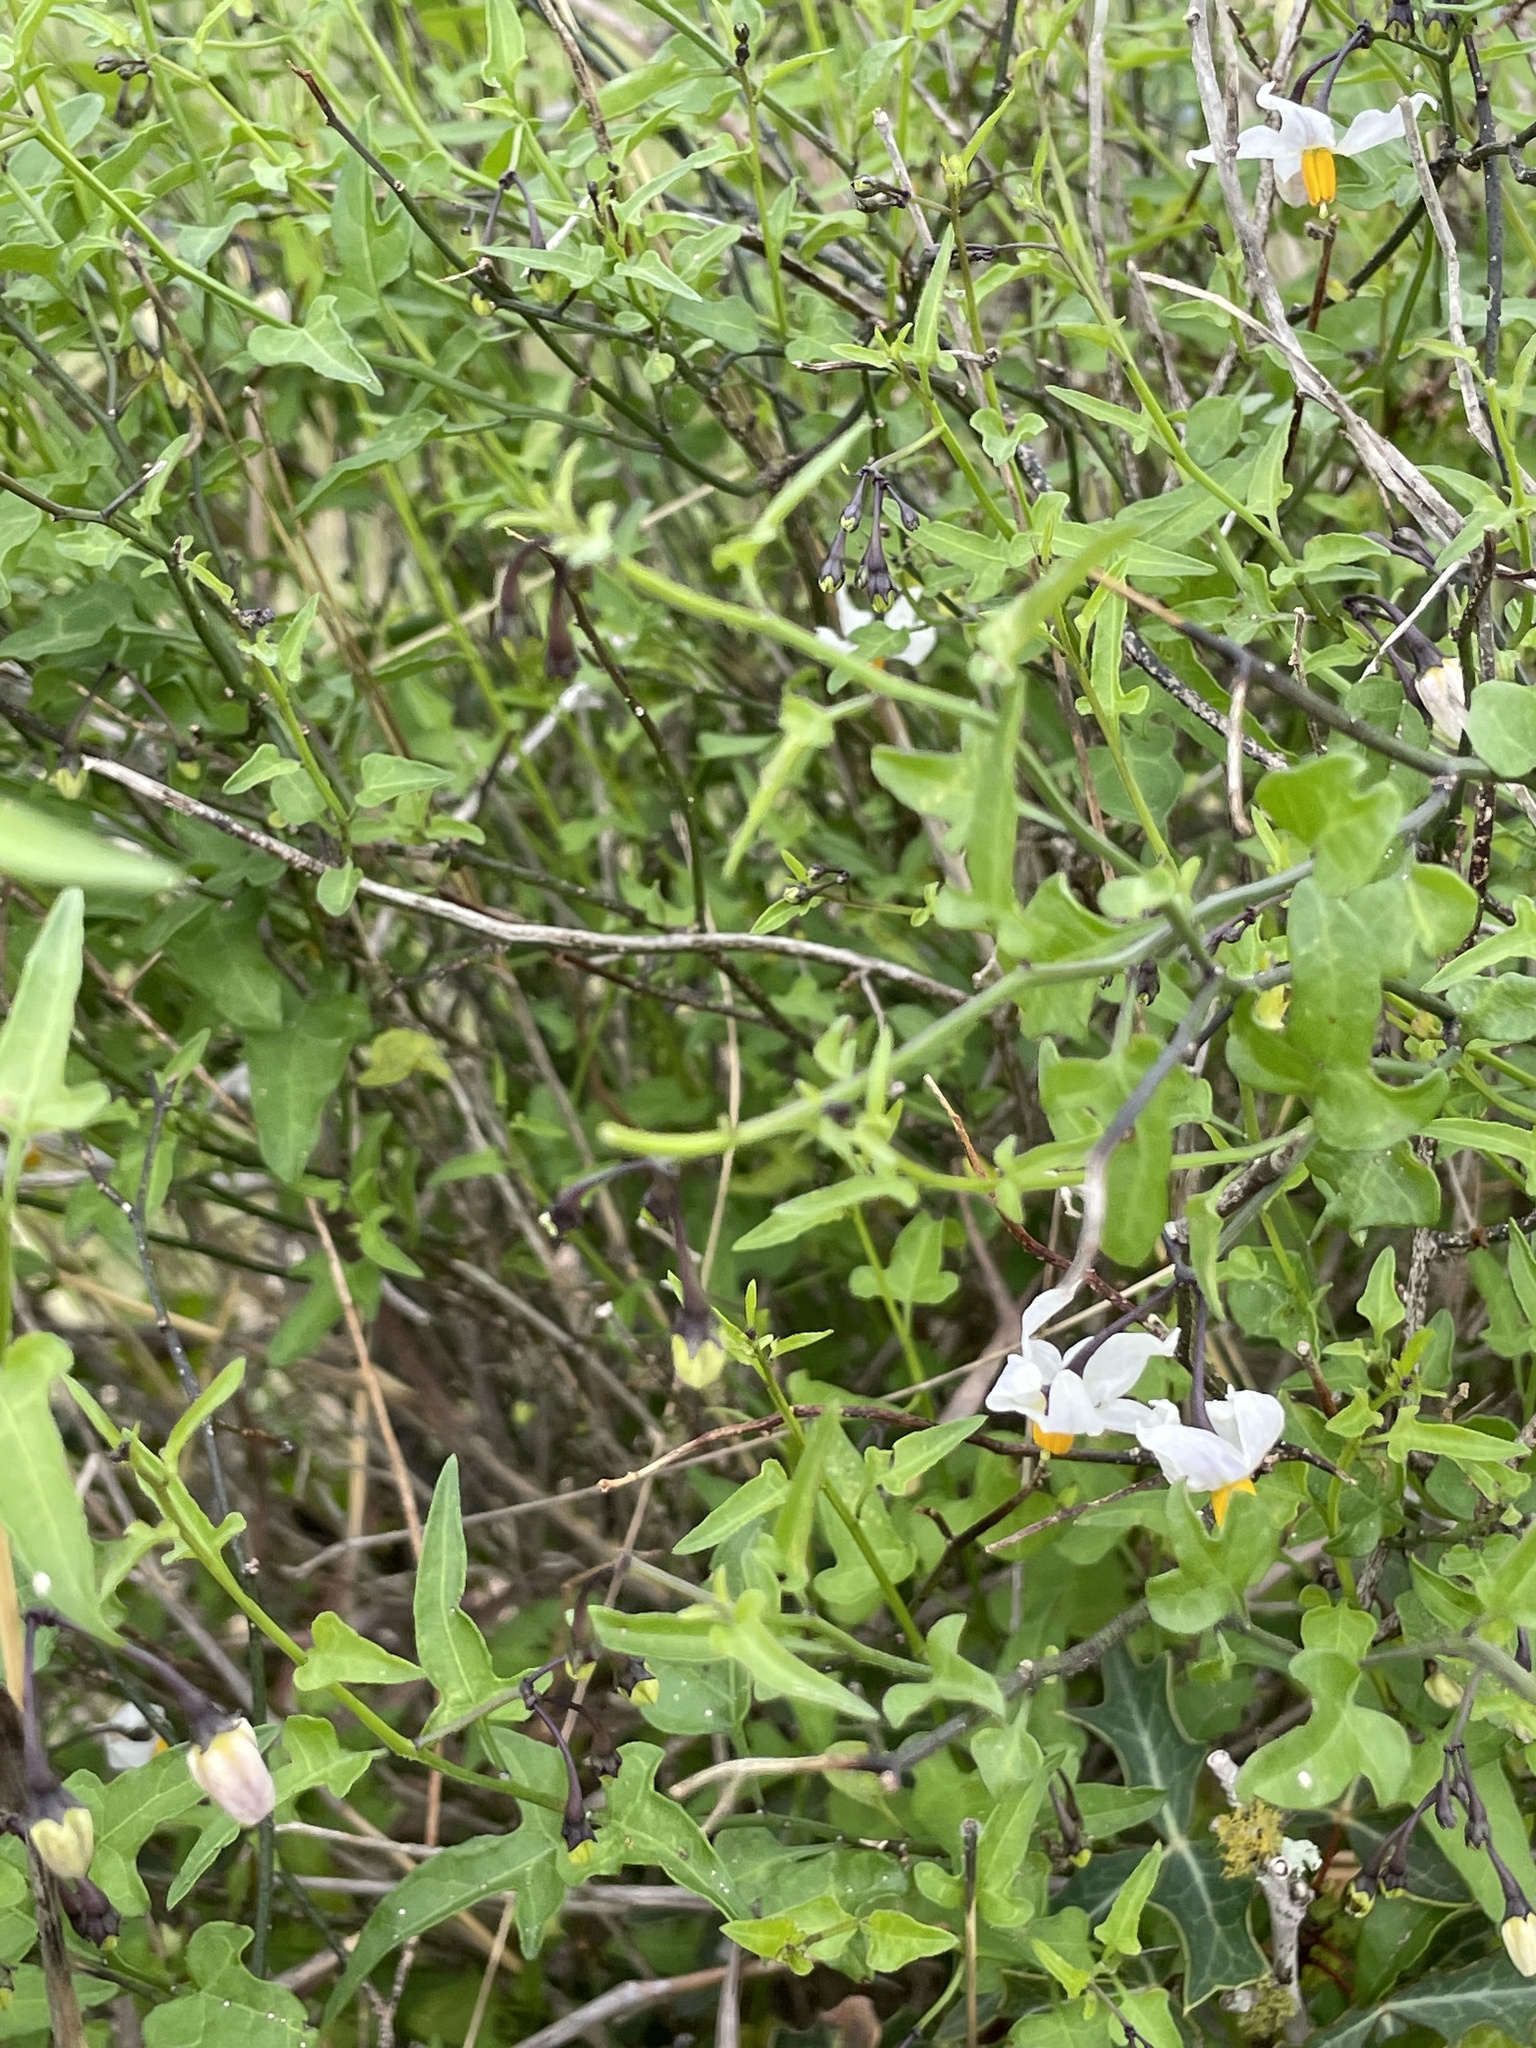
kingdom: Plantae
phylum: Tracheophyta
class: Magnoliopsida
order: Solanales
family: Solanaceae
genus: Solanum
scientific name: Solanum triquetrum
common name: Texas nightshade
